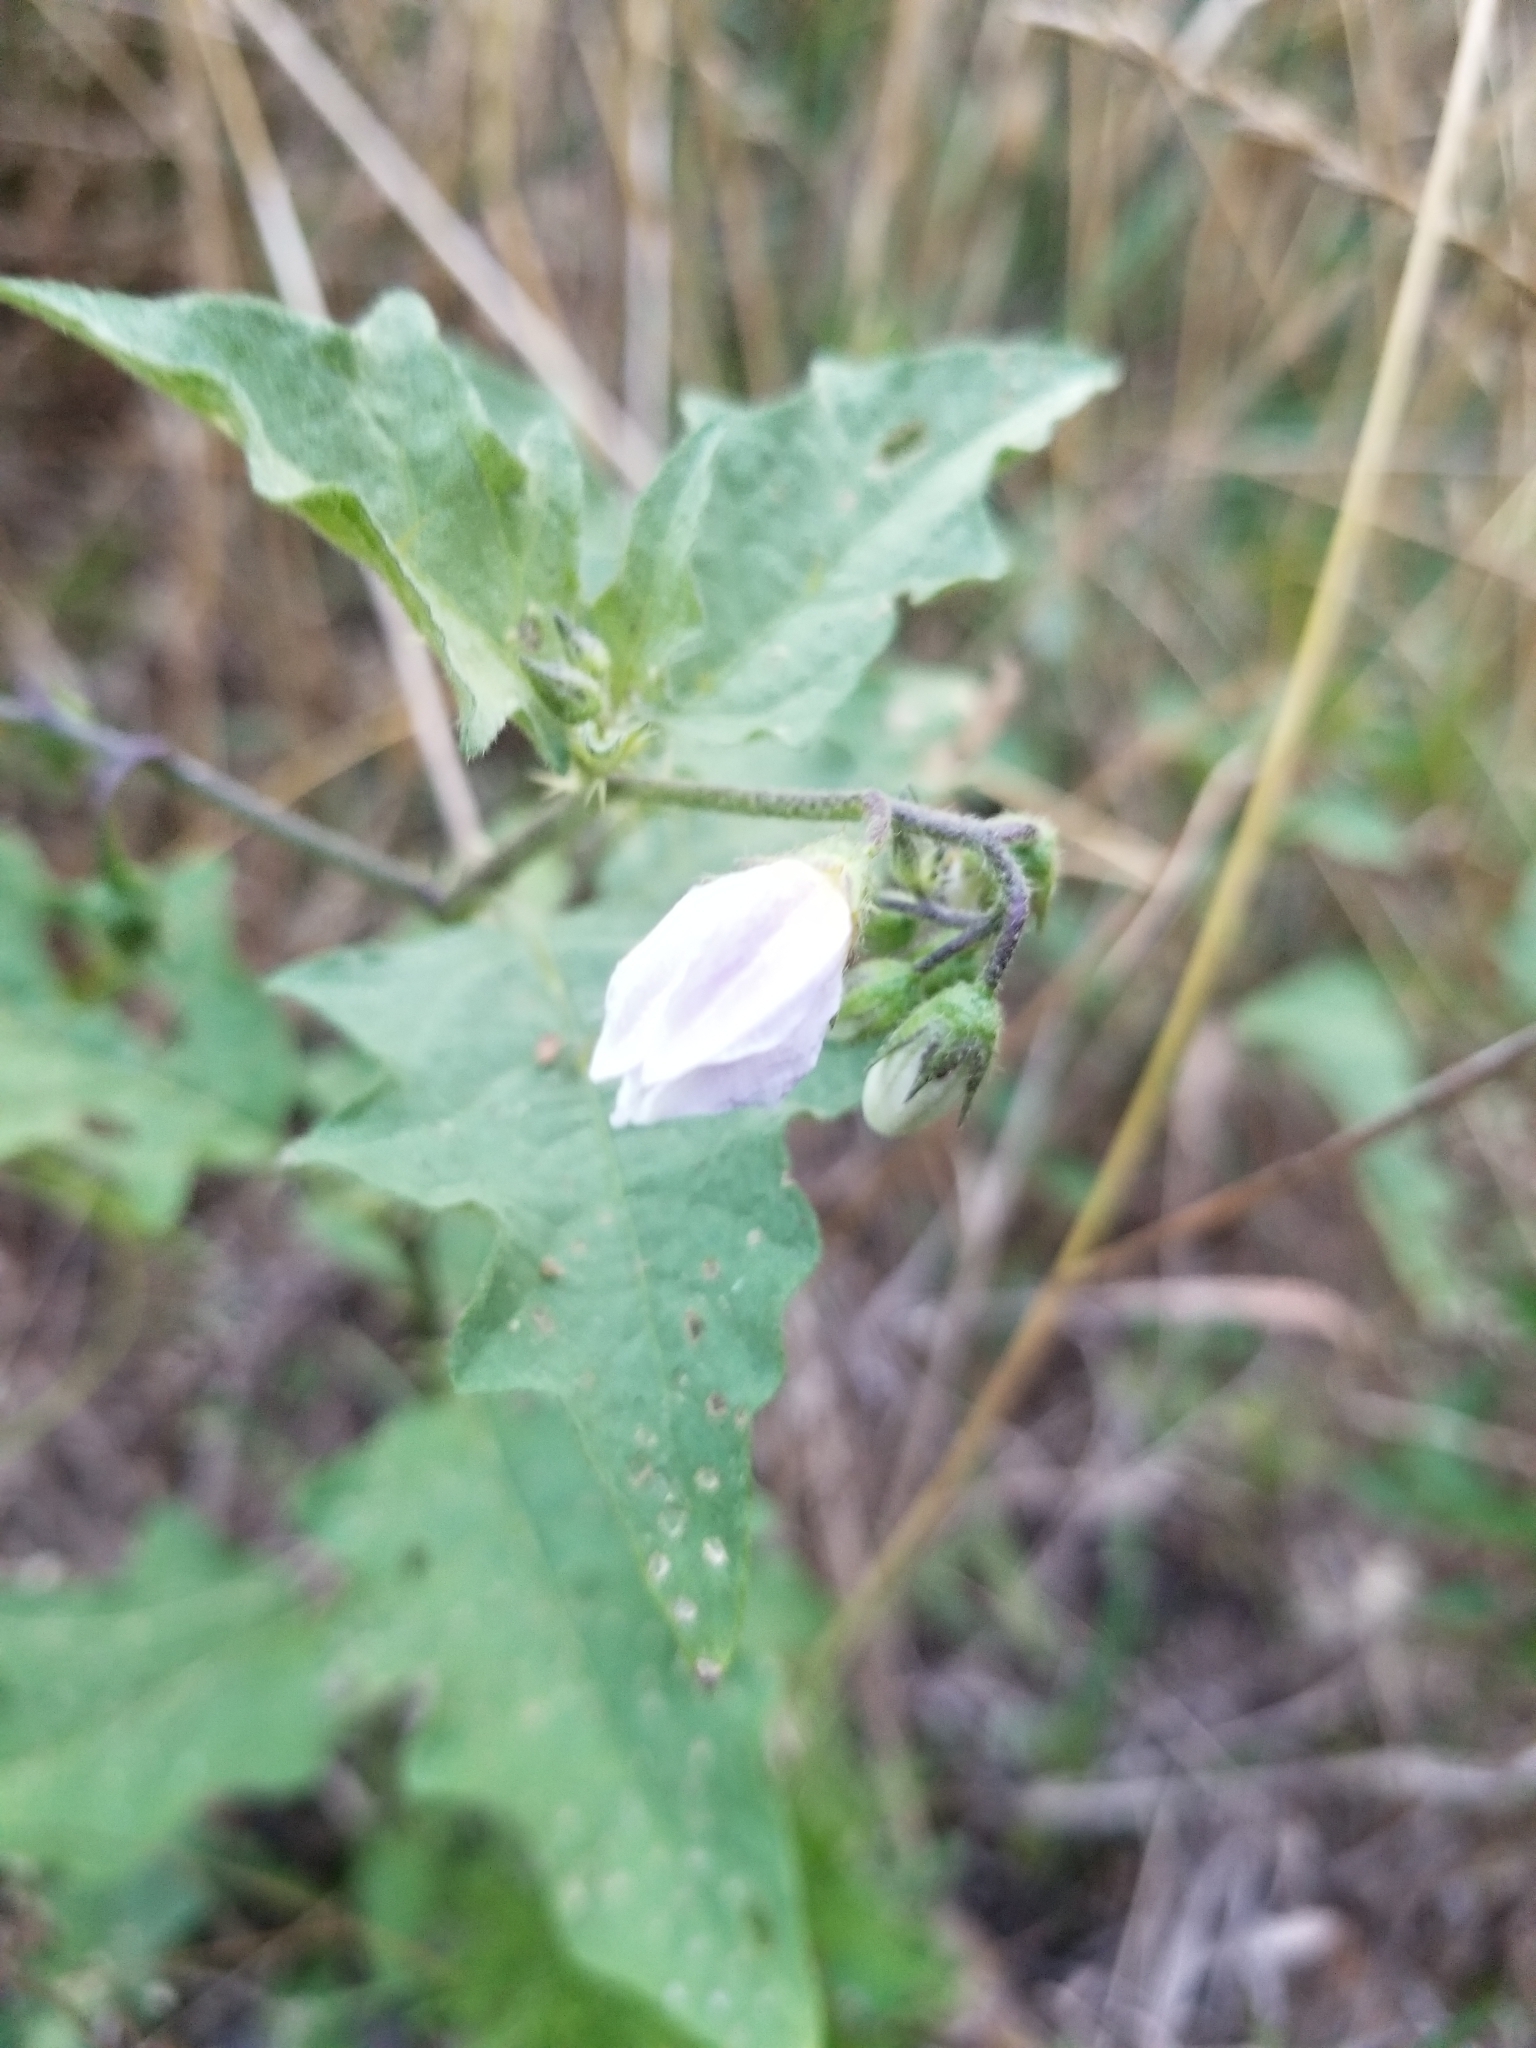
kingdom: Plantae
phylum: Tracheophyta
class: Magnoliopsida
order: Solanales
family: Solanaceae
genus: Solanum
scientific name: Solanum carolinense
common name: Horse-nettle
